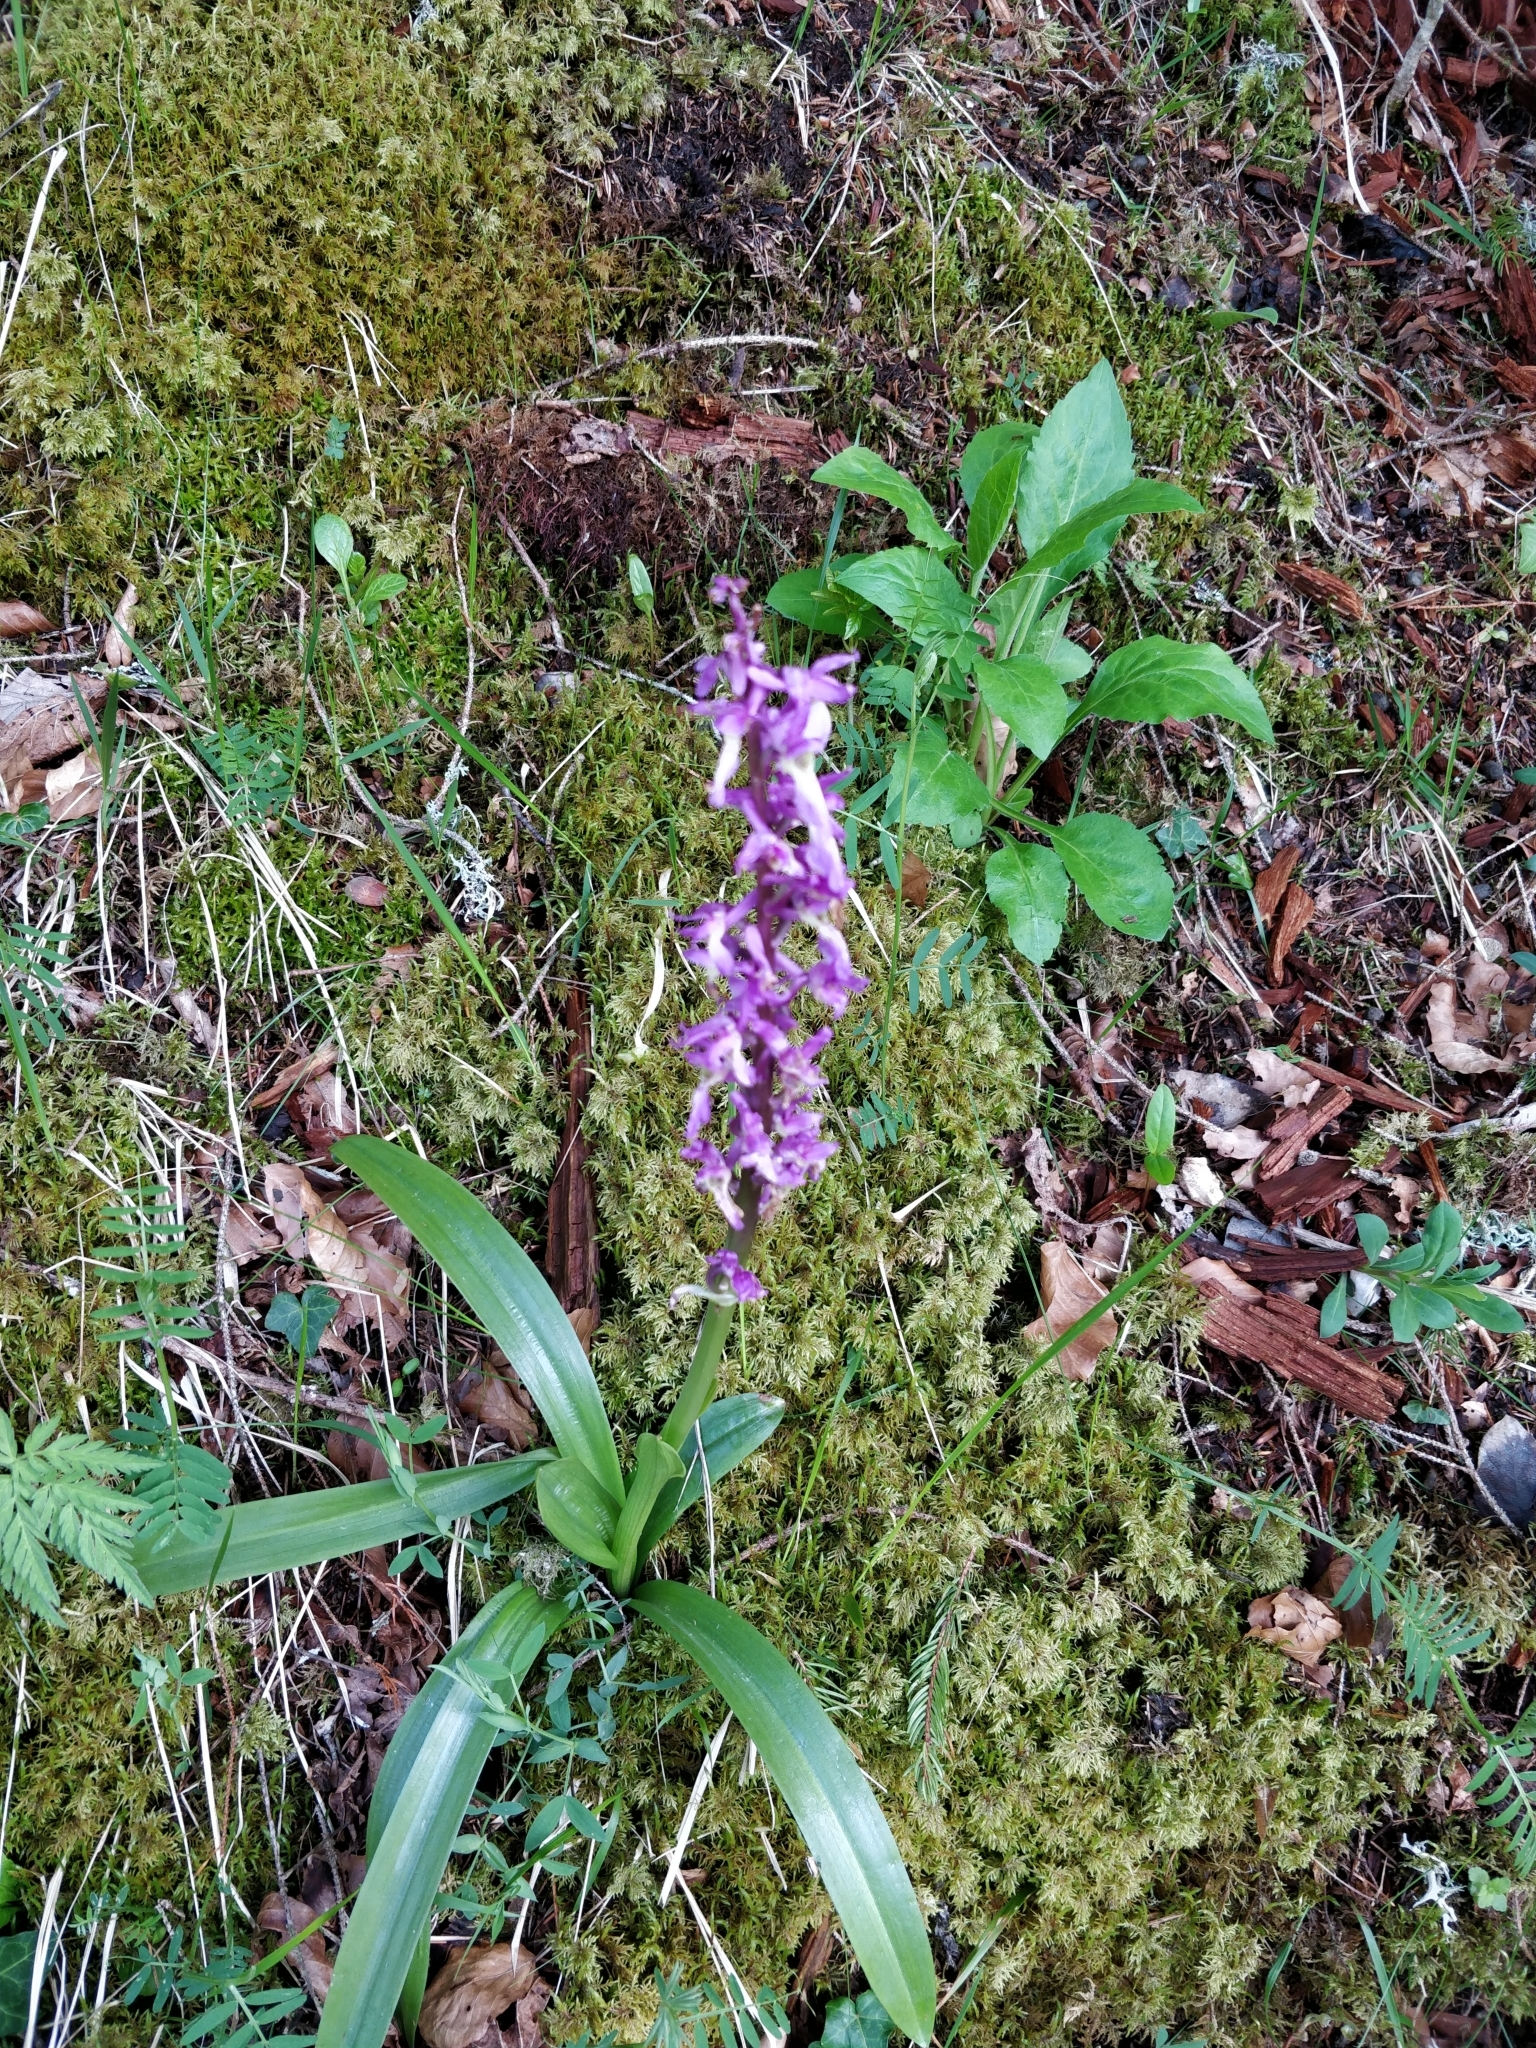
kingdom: Plantae
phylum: Tracheophyta
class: Liliopsida
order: Asparagales
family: Orchidaceae
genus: Orchis
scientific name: Orchis mascula
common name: Early-purple orchid
